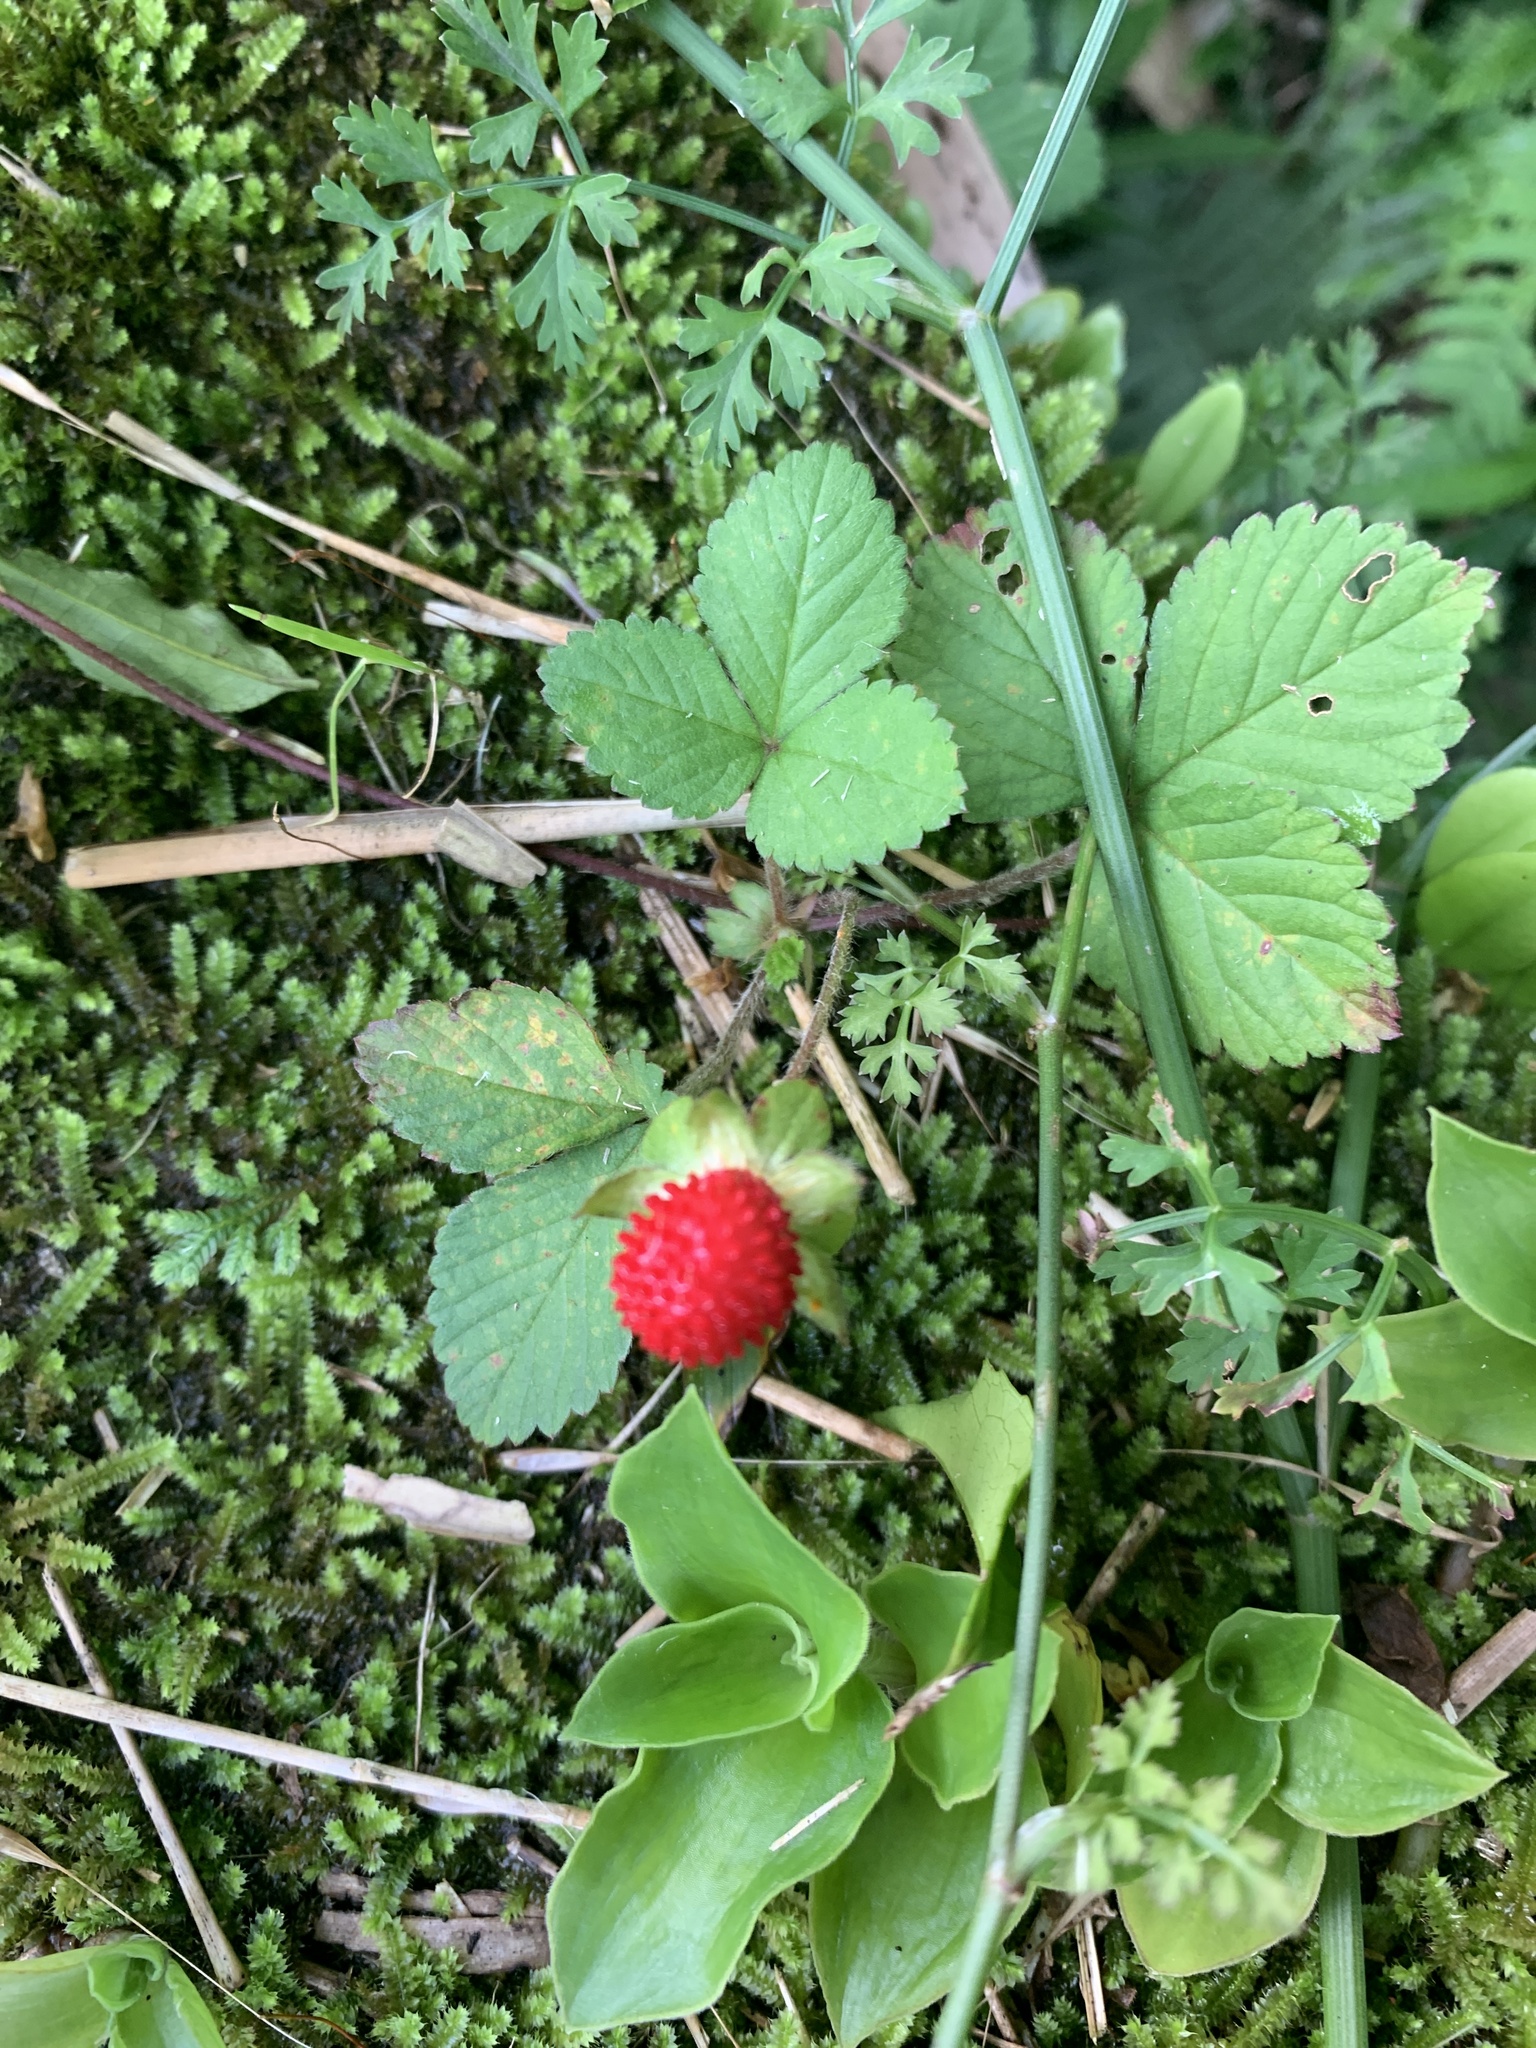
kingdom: Plantae
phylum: Tracheophyta
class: Magnoliopsida
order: Rosales
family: Rosaceae
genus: Potentilla
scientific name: Potentilla wallichiana
